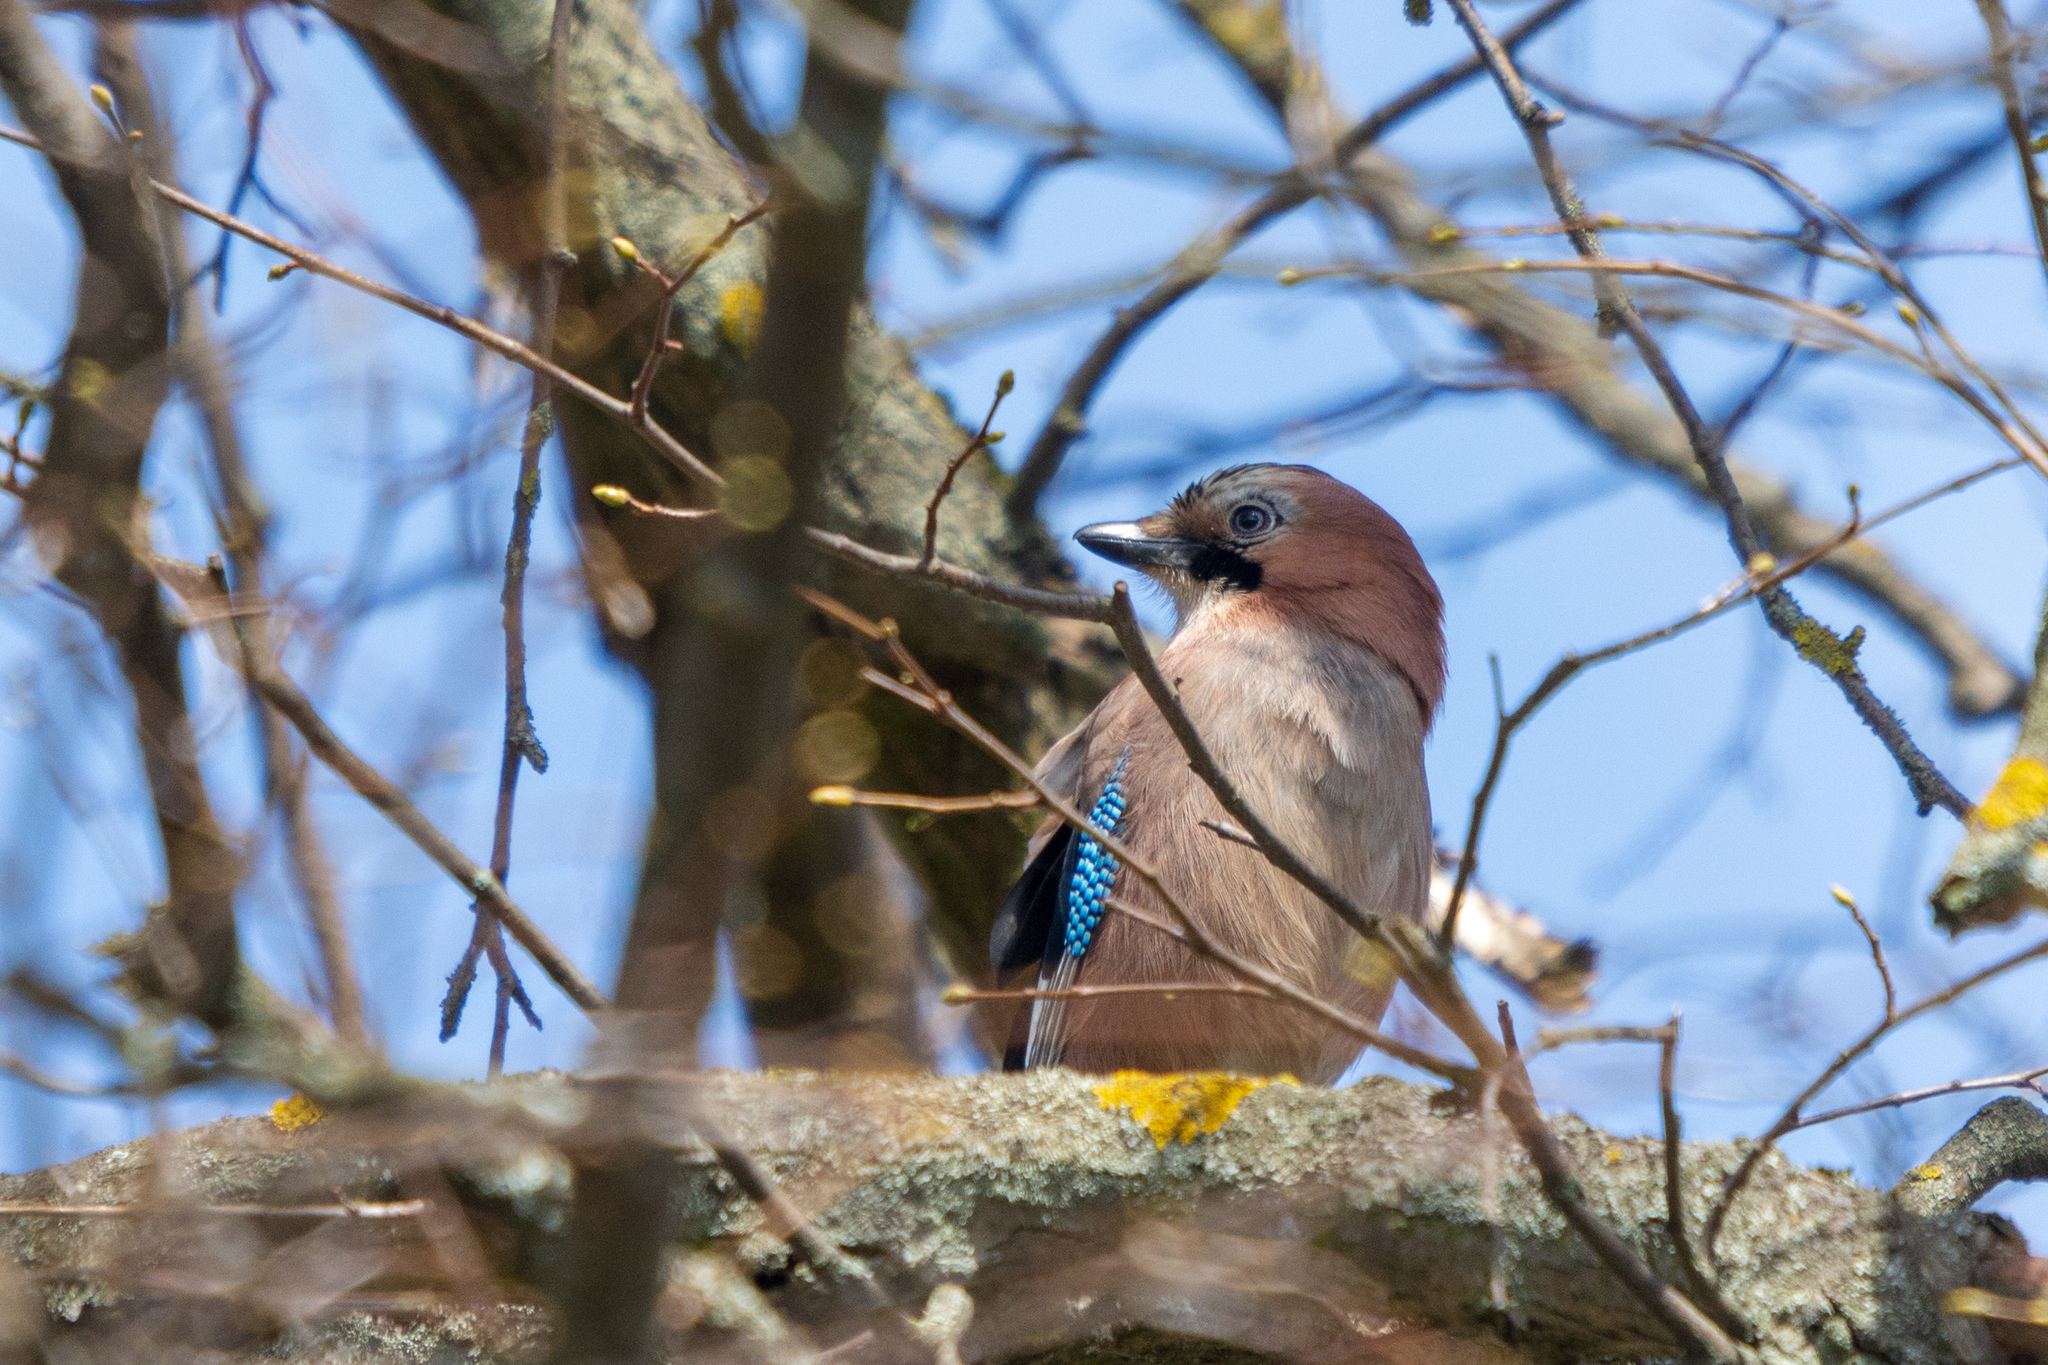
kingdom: Animalia
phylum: Chordata
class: Aves
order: Passeriformes
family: Corvidae
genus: Garrulus
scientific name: Garrulus glandarius
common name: Eurasian jay
